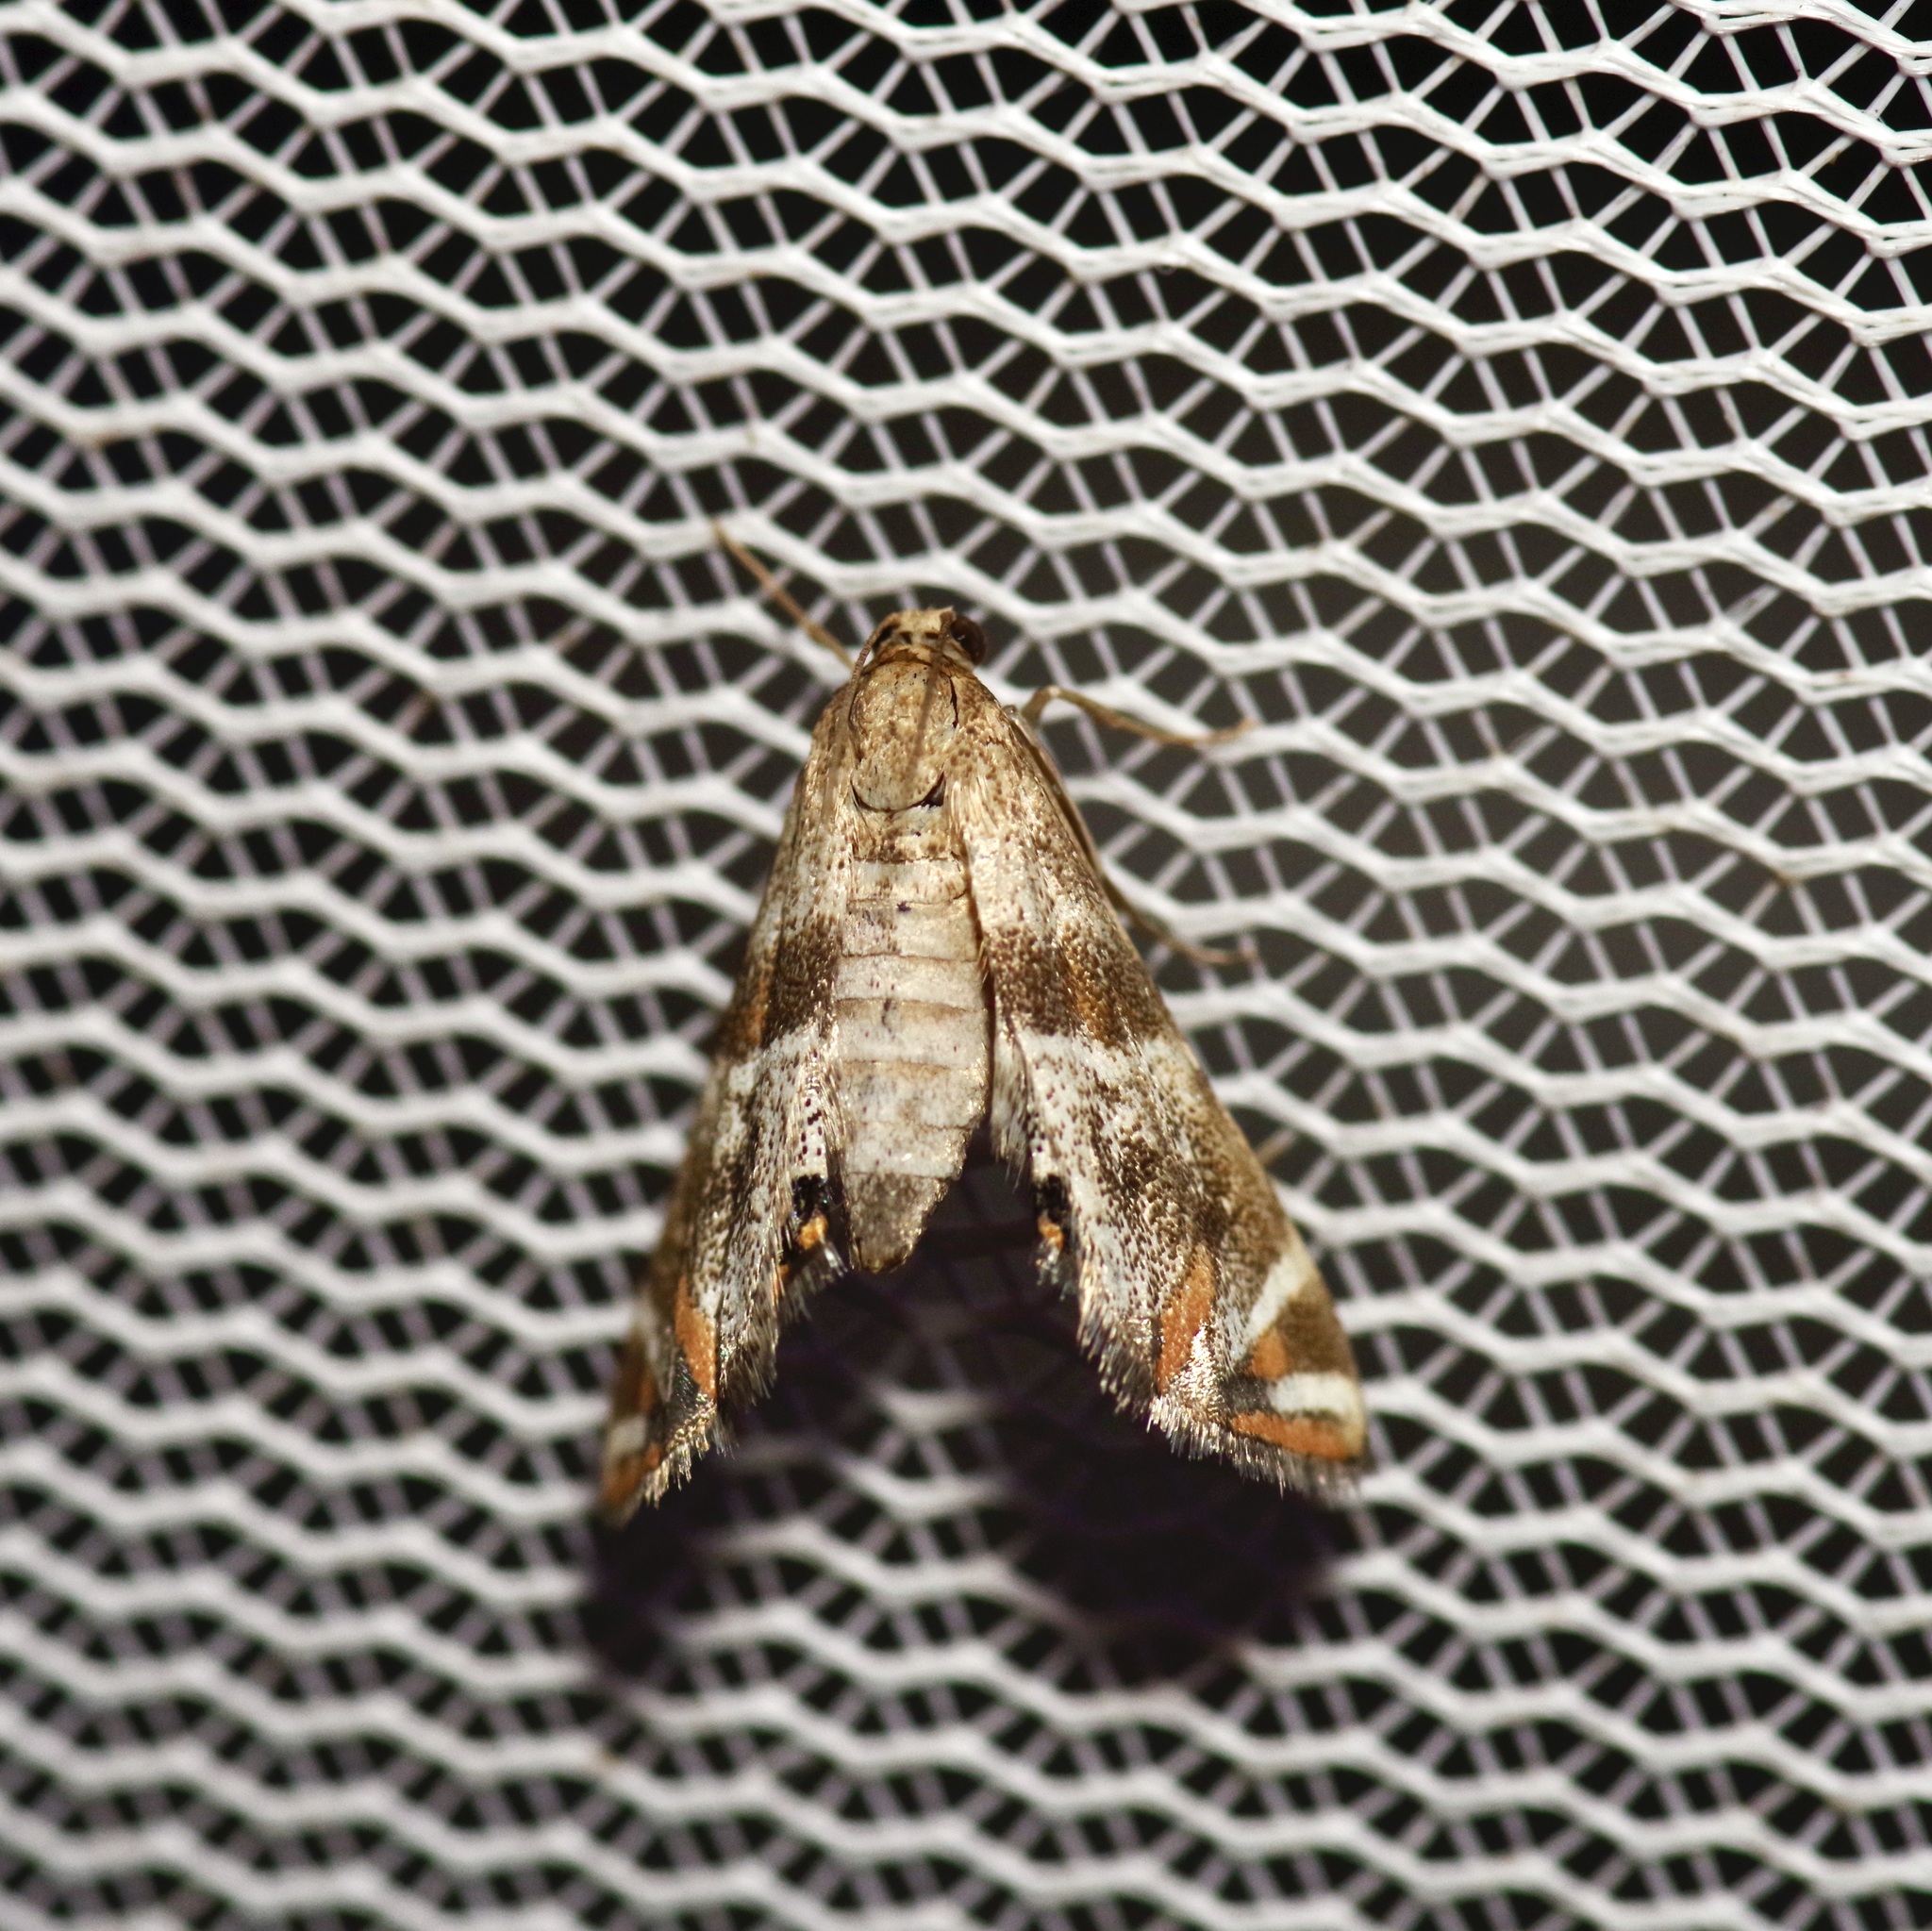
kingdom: Animalia
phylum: Arthropoda
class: Insecta
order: Lepidoptera
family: Crambidae
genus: Petrophila
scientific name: Petrophila jaliscalis
